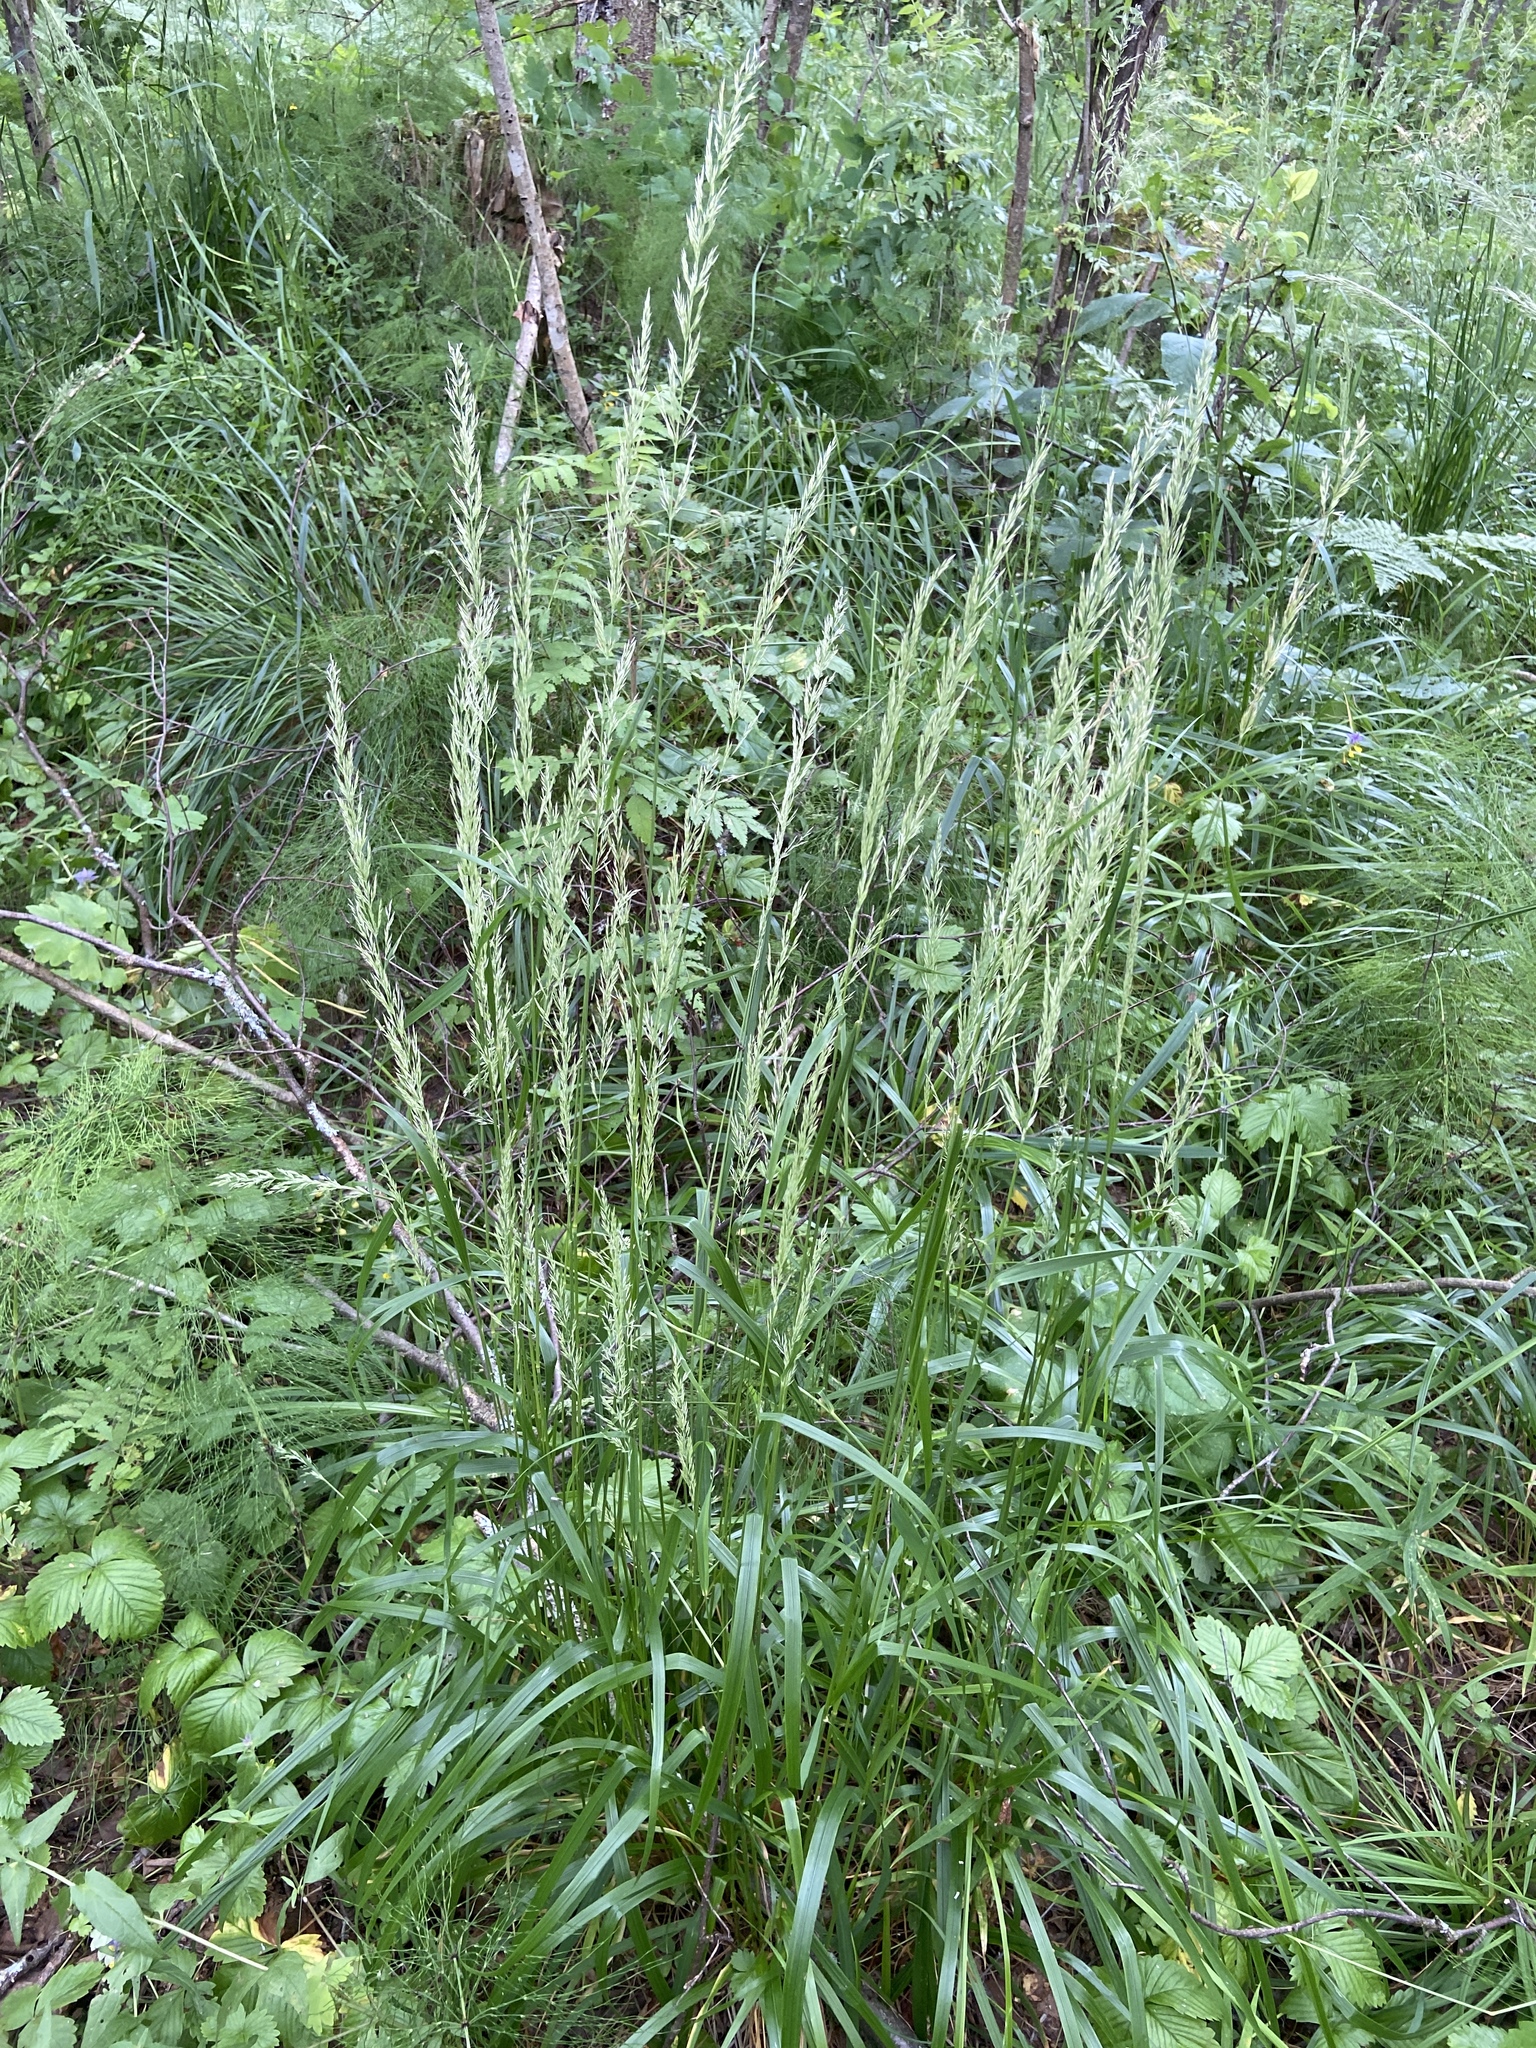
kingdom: Plantae
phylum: Tracheophyta
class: Liliopsida
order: Poales
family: Poaceae
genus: Calamagrostis
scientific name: Calamagrostis arundinacea
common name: Metskastik
